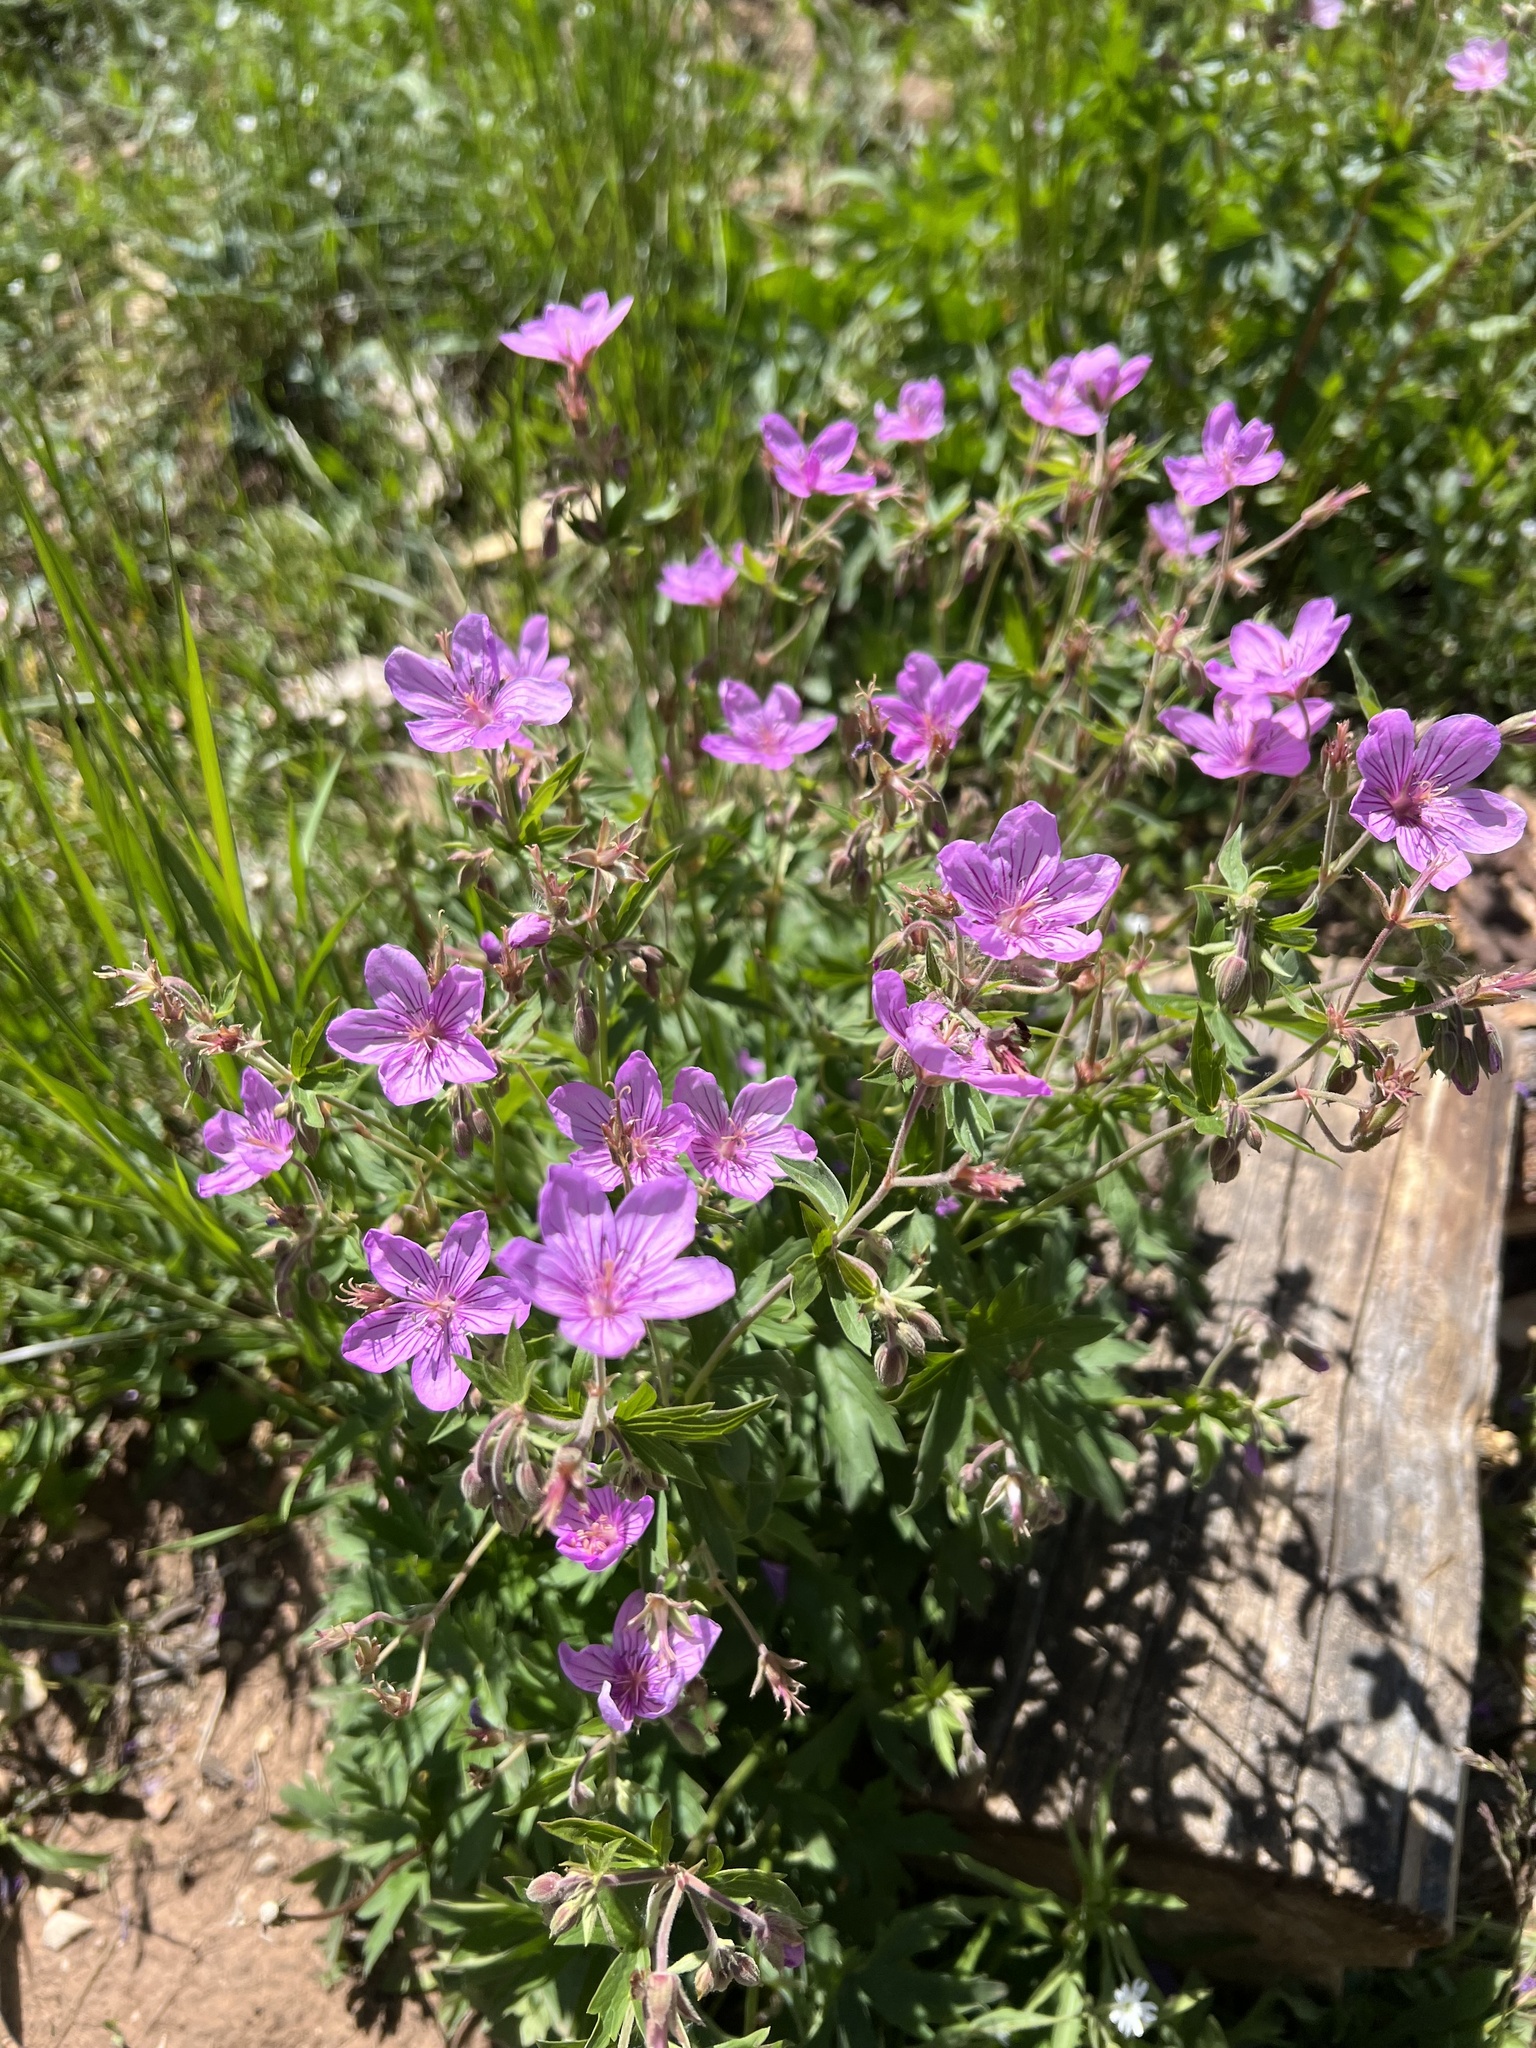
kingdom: Plantae
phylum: Tracheophyta
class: Magnoliopsida
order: Geraniales
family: Geraniaceae
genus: Geranium
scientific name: Geranium viscosissimum
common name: Purple geranium
